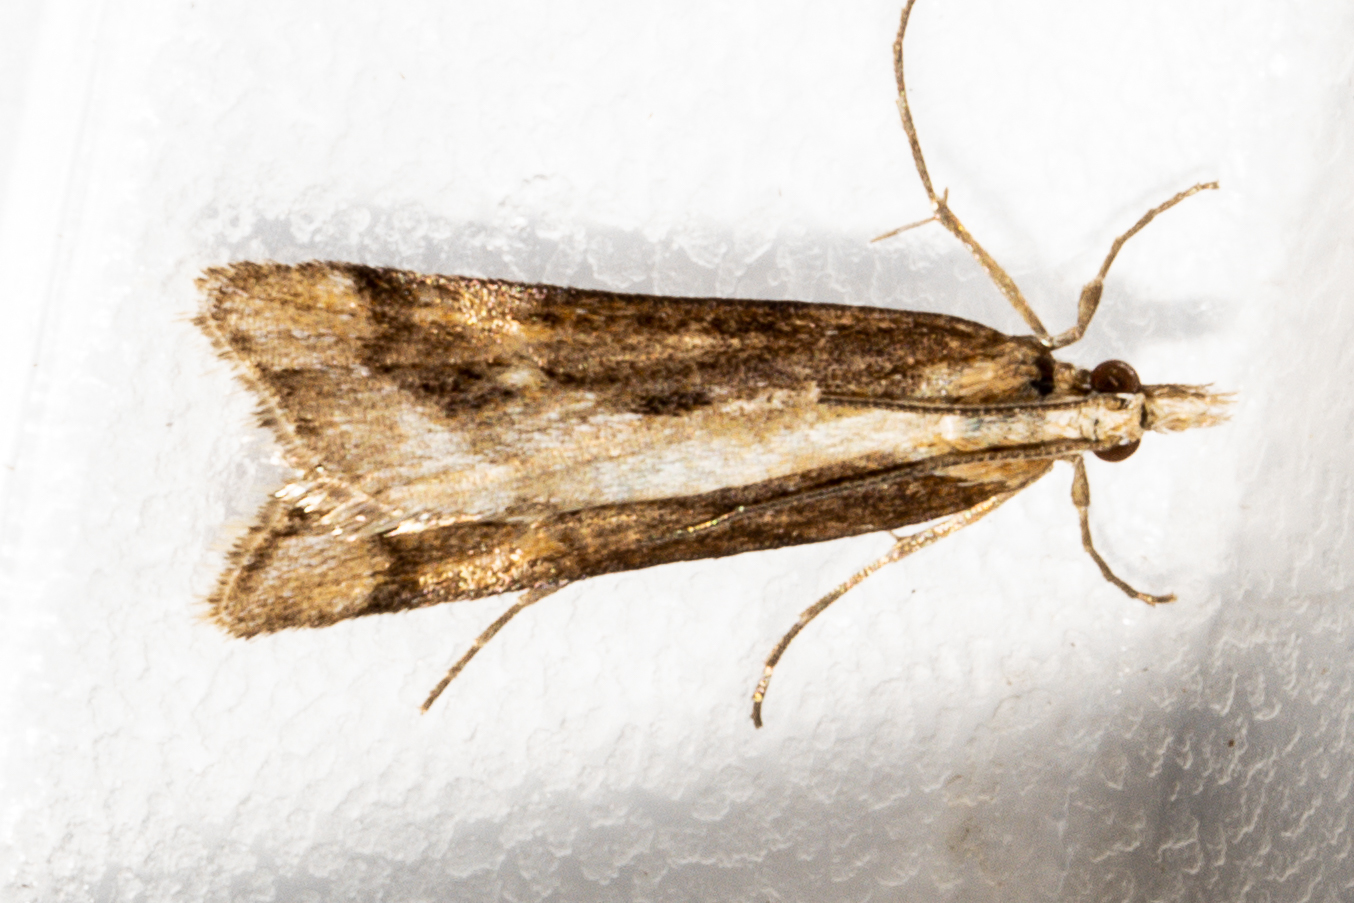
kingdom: Animalia
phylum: Arthropoda
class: Insecta
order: Lepidoptera
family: Crambidae
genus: Scoparia
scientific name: Scoparia exilis
